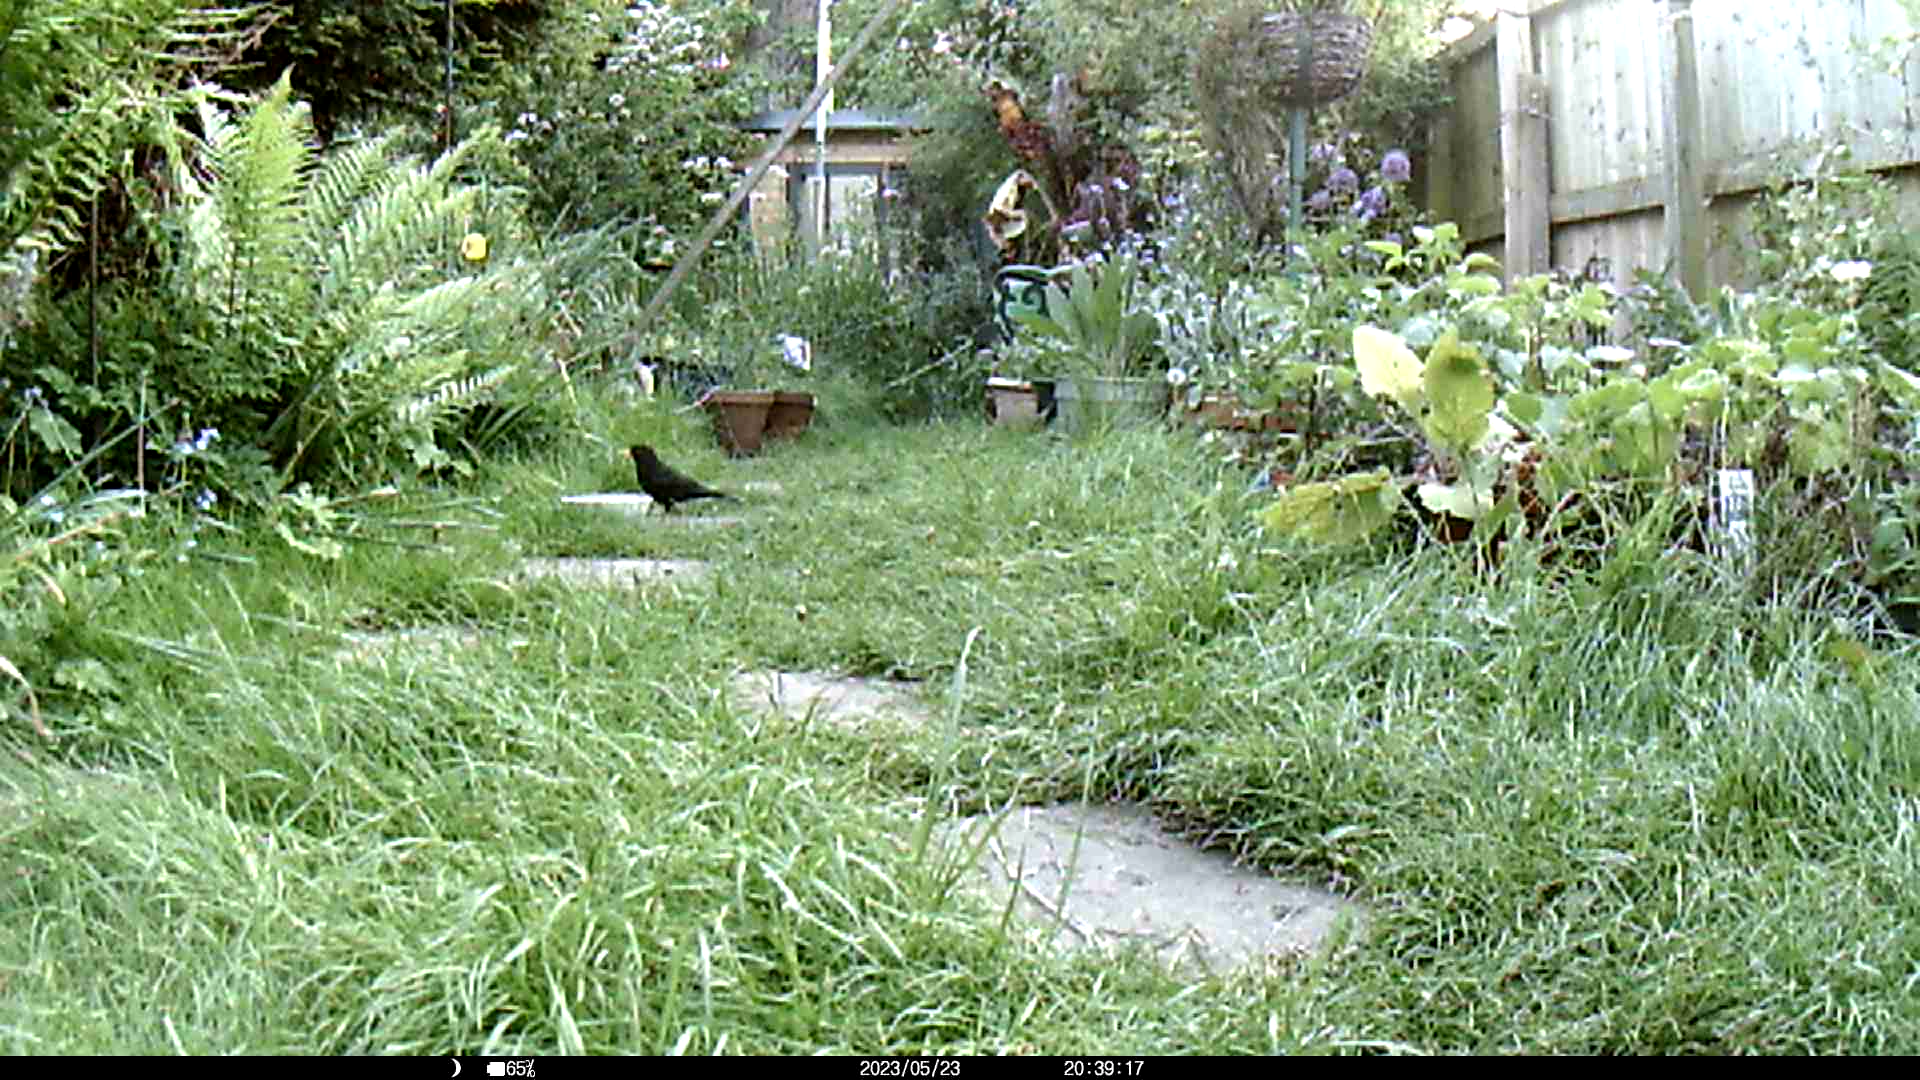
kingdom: Animalia
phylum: Chordata
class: Aves
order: Passeriformes
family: Turdidae
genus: Turdus
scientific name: Turdus merula
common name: Common blackbird
